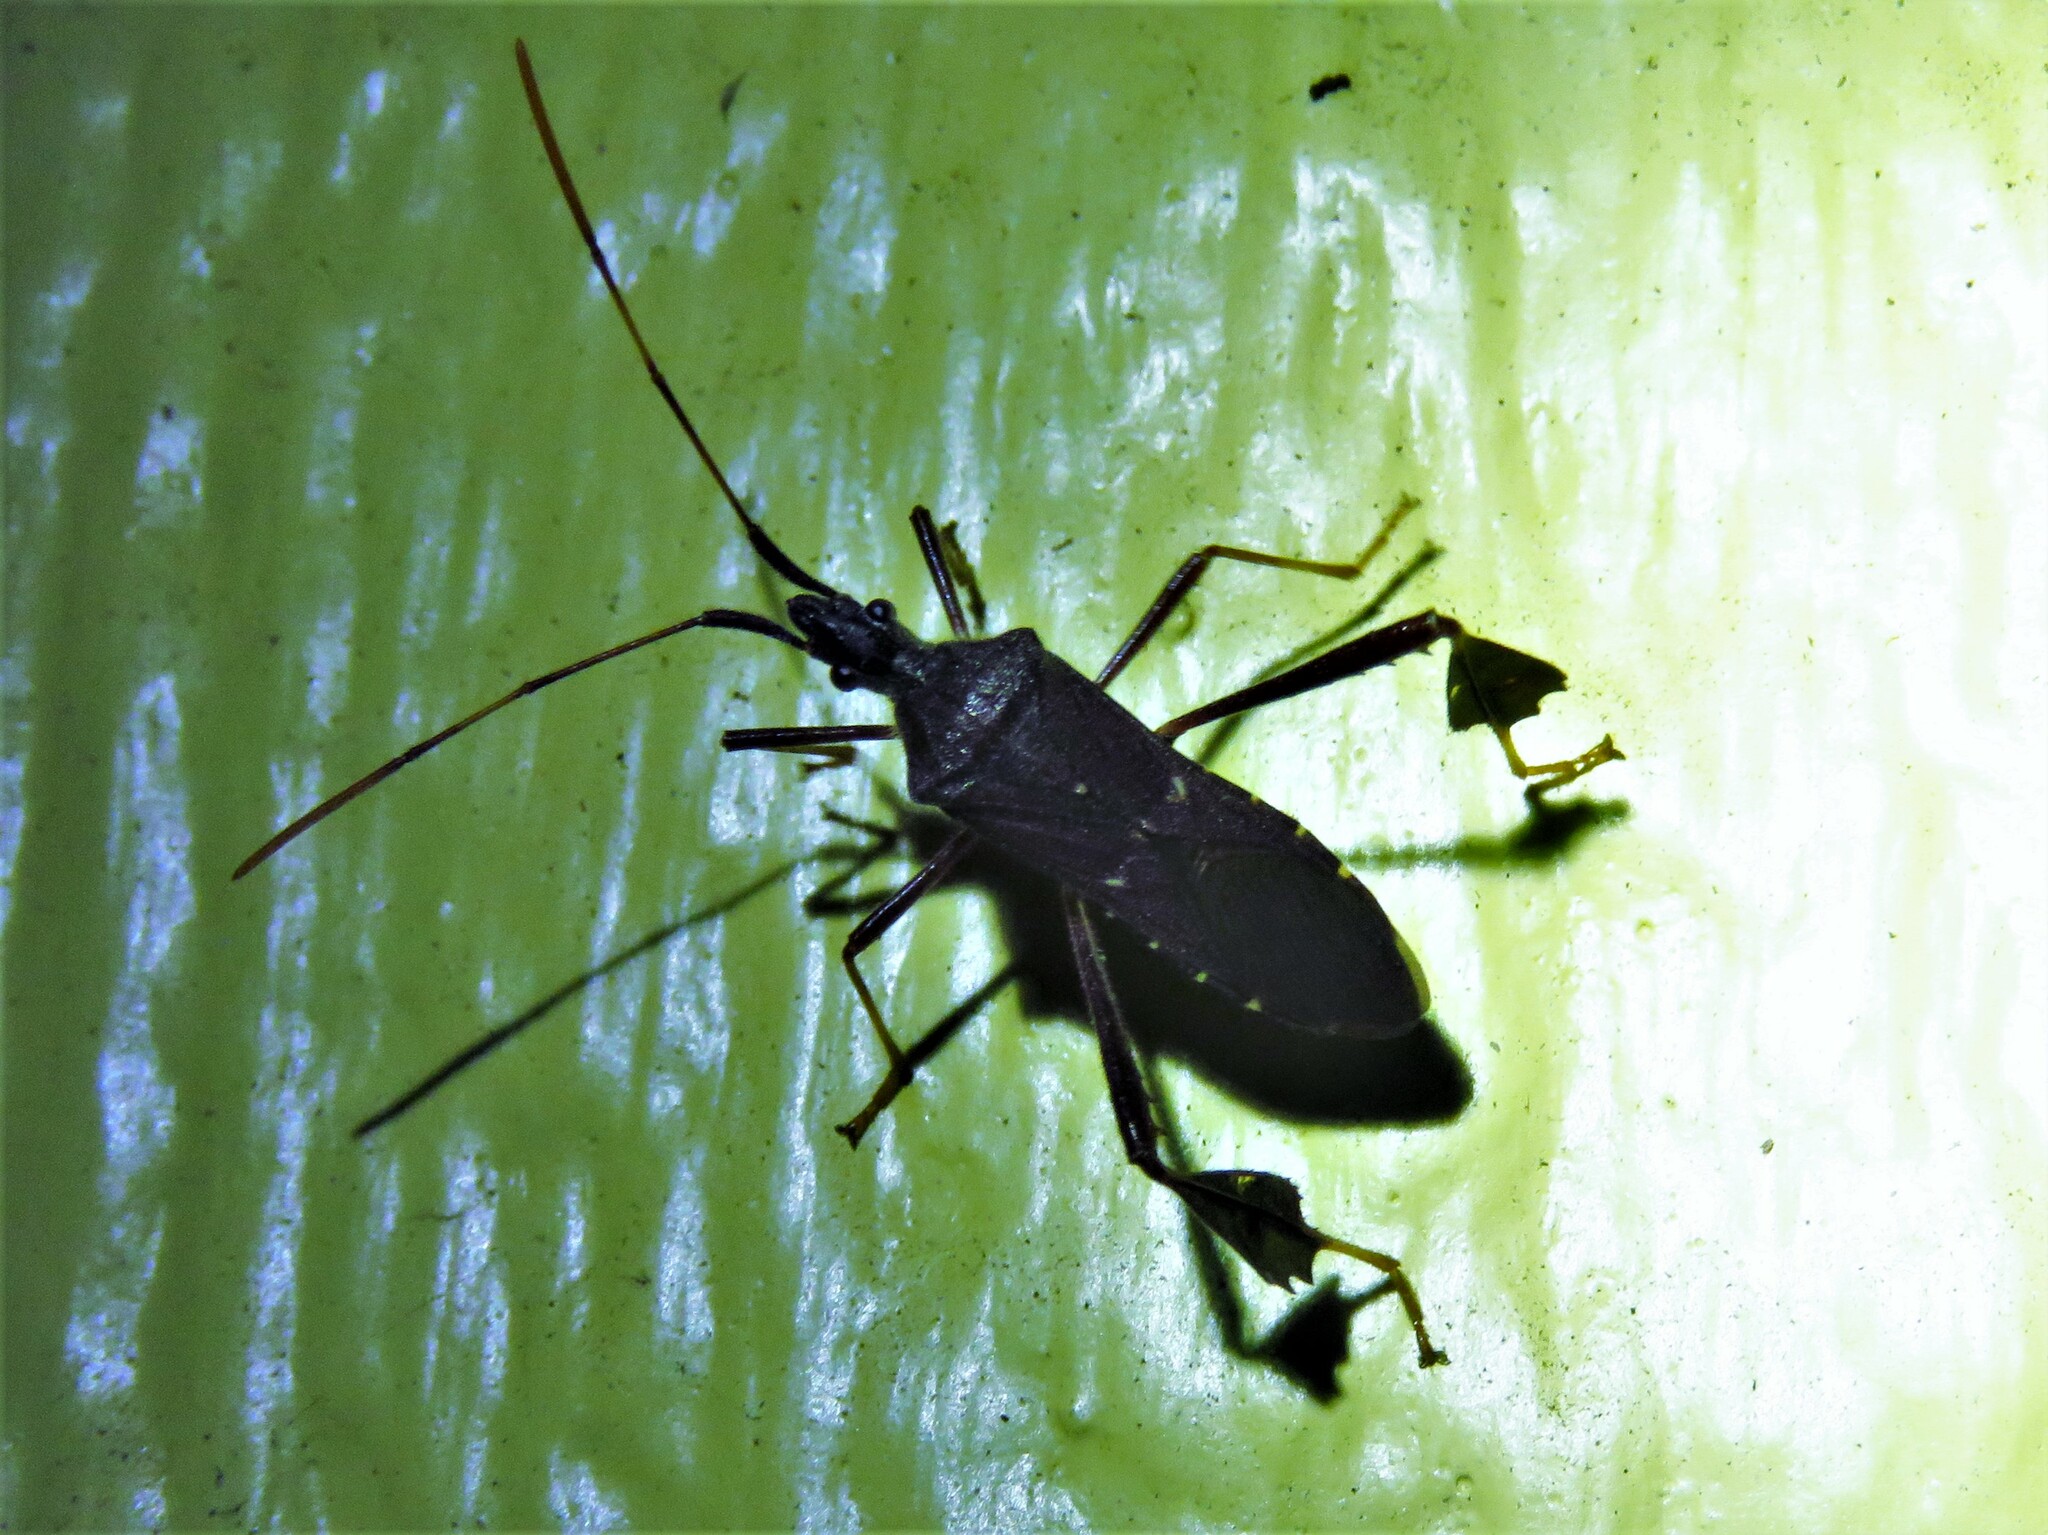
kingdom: Animalia
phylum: Arthropoda
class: Insecta
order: Hemiptera
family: Coreidae
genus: Leptoglossus
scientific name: Leptoglossus oppositus
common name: Northern leaf-footed bug
